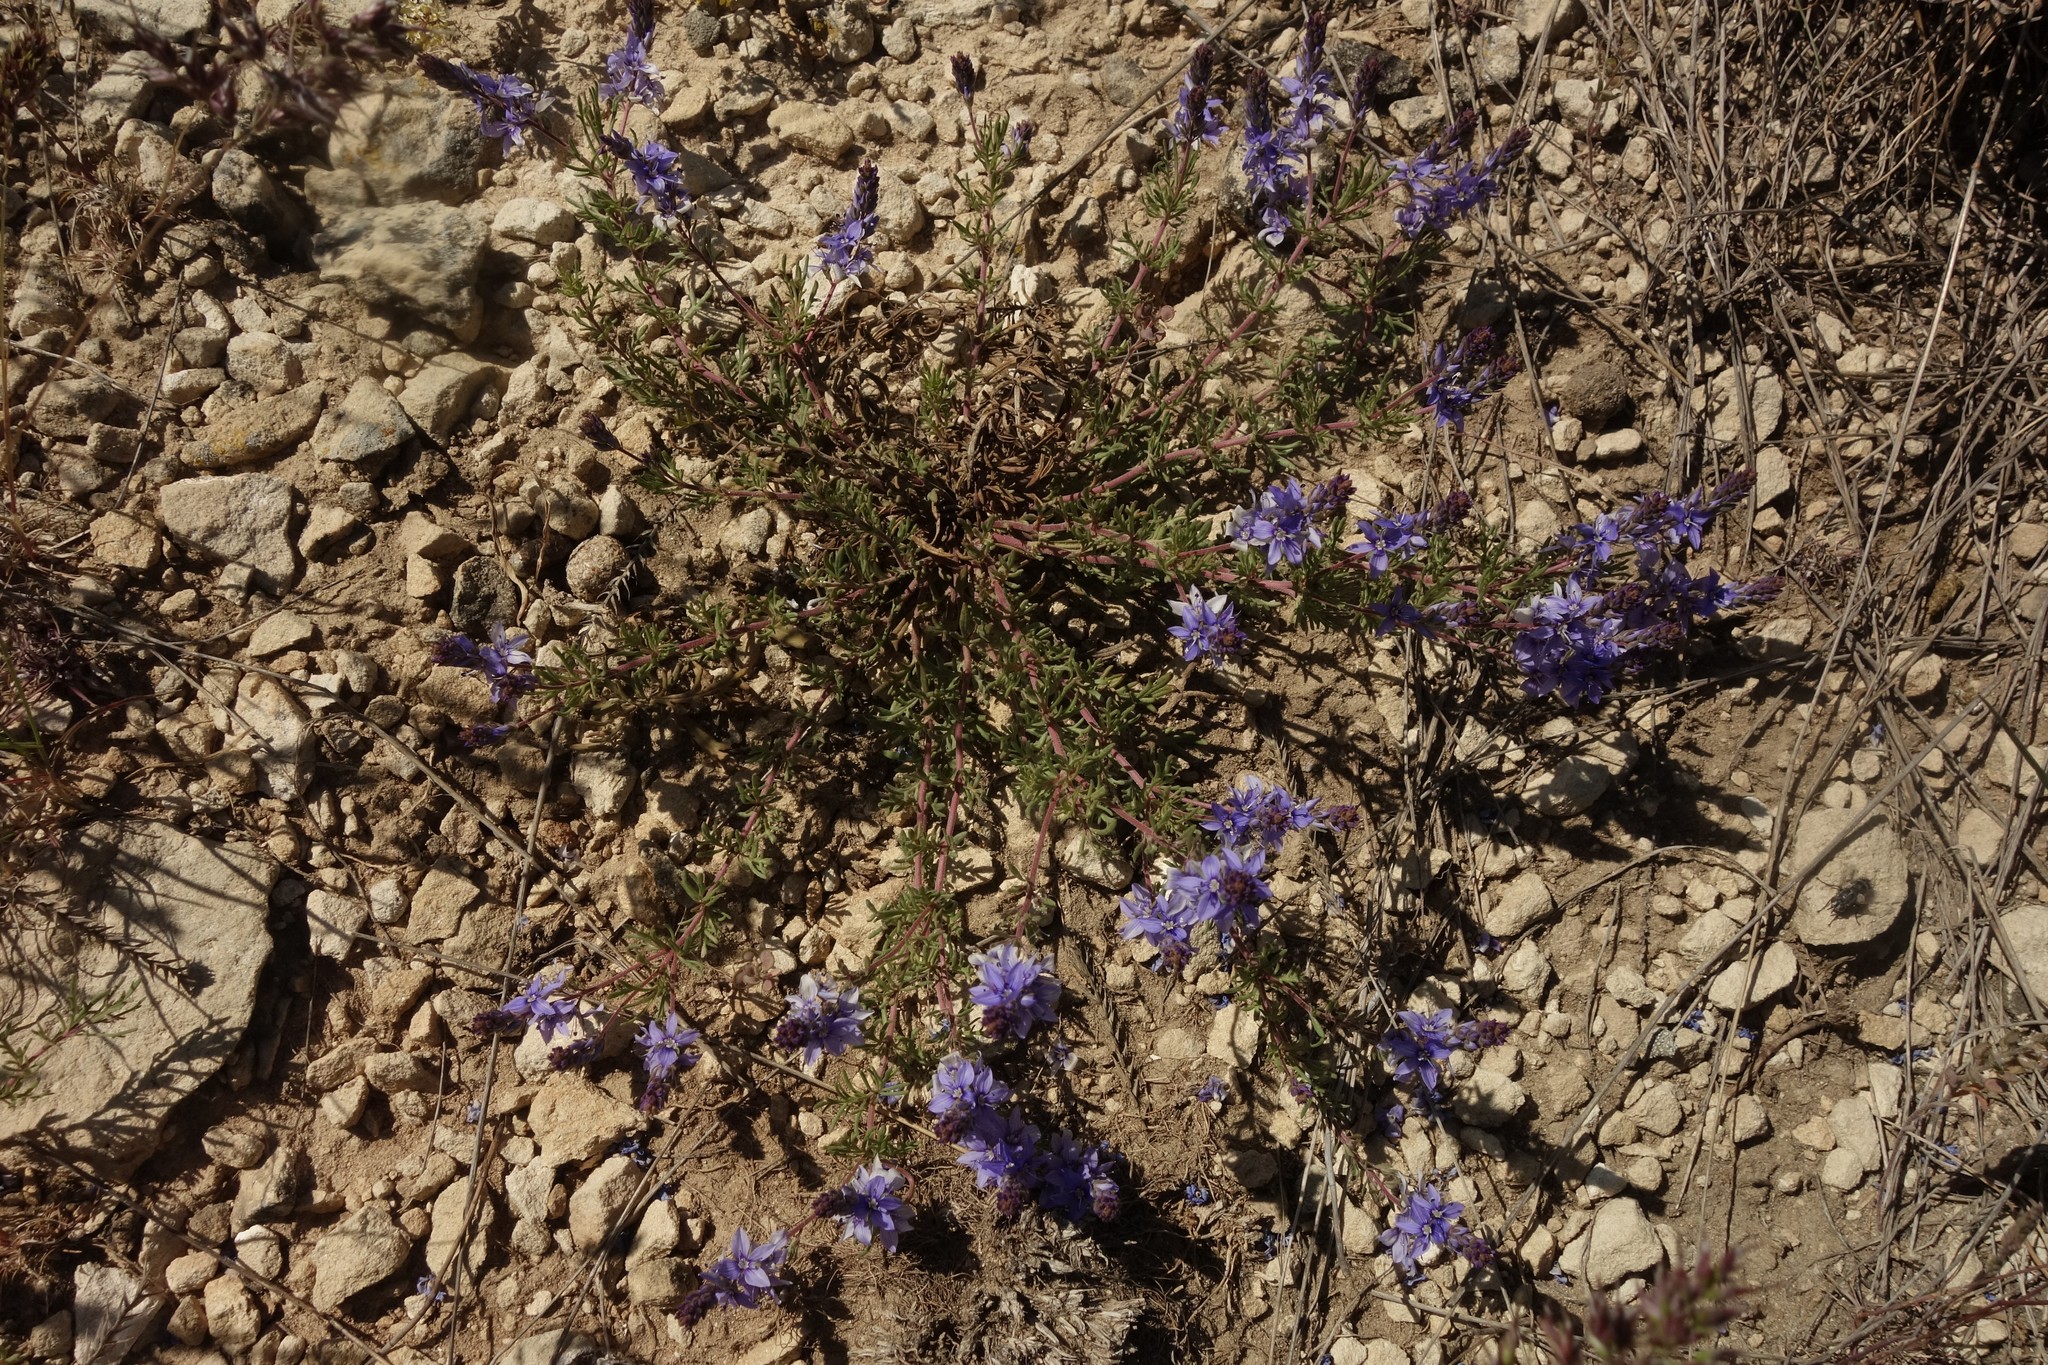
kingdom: Plantae
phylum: Tracheophyta
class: Magnoliopsida
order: Lamiales
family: Plantaginaceae
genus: Veronica
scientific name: Veronica multifida
